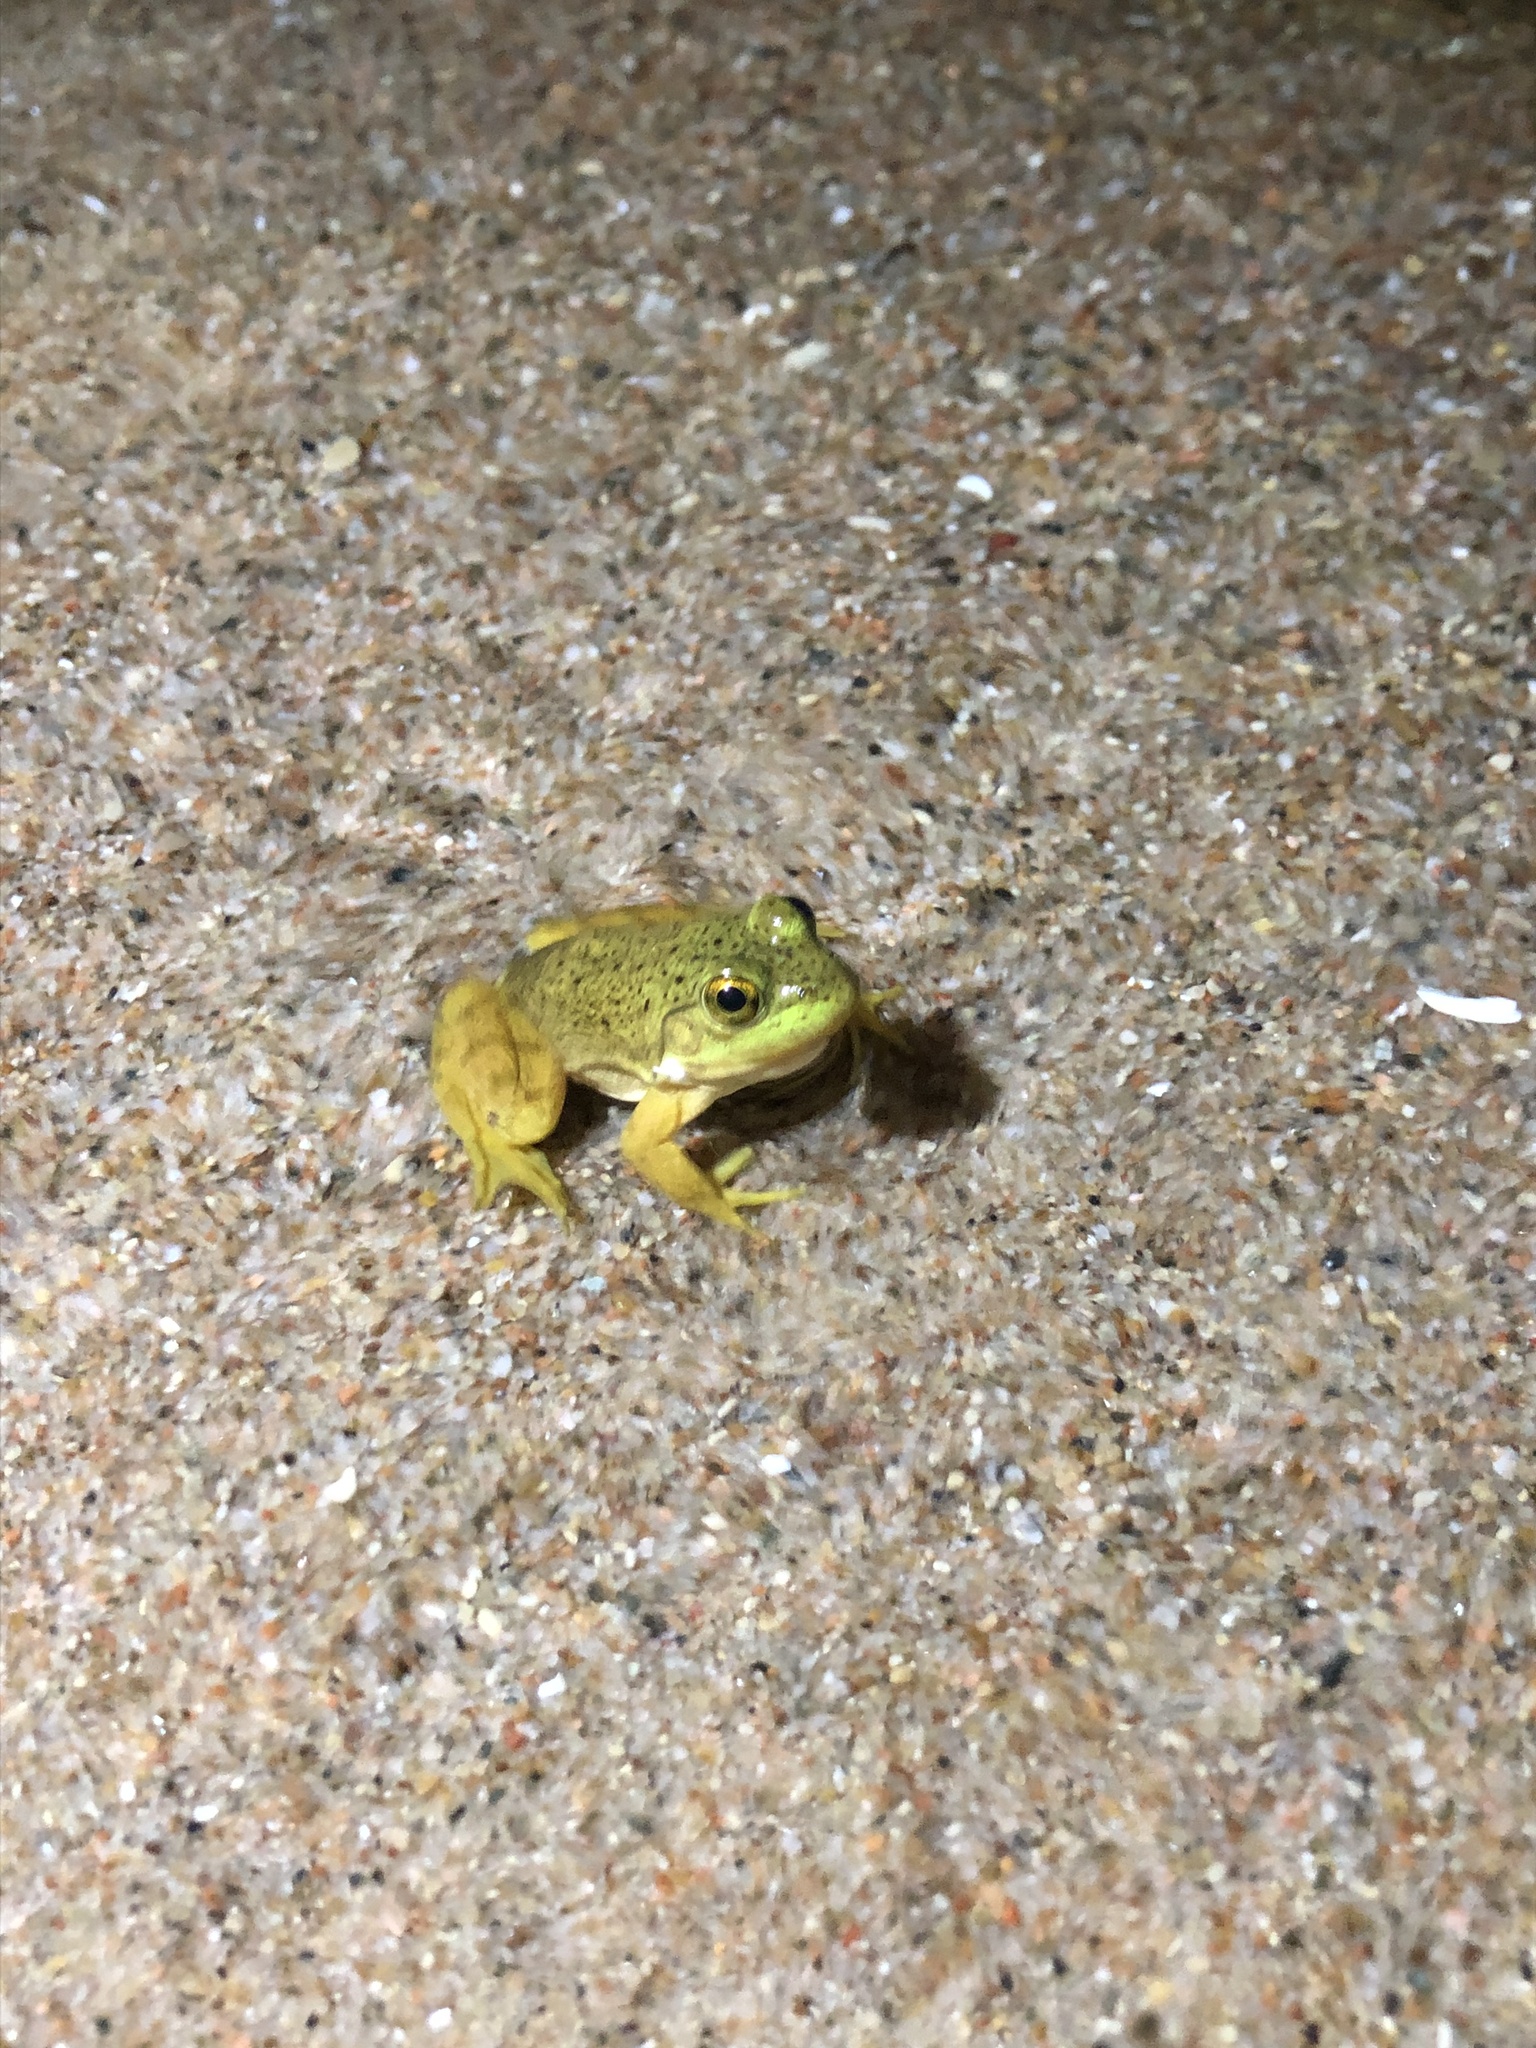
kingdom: Animalia
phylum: Chordata
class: Amphibia
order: Anura
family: Ranidae
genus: Lithobates
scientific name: Lithobates catesbeianus
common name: American bullfrog
